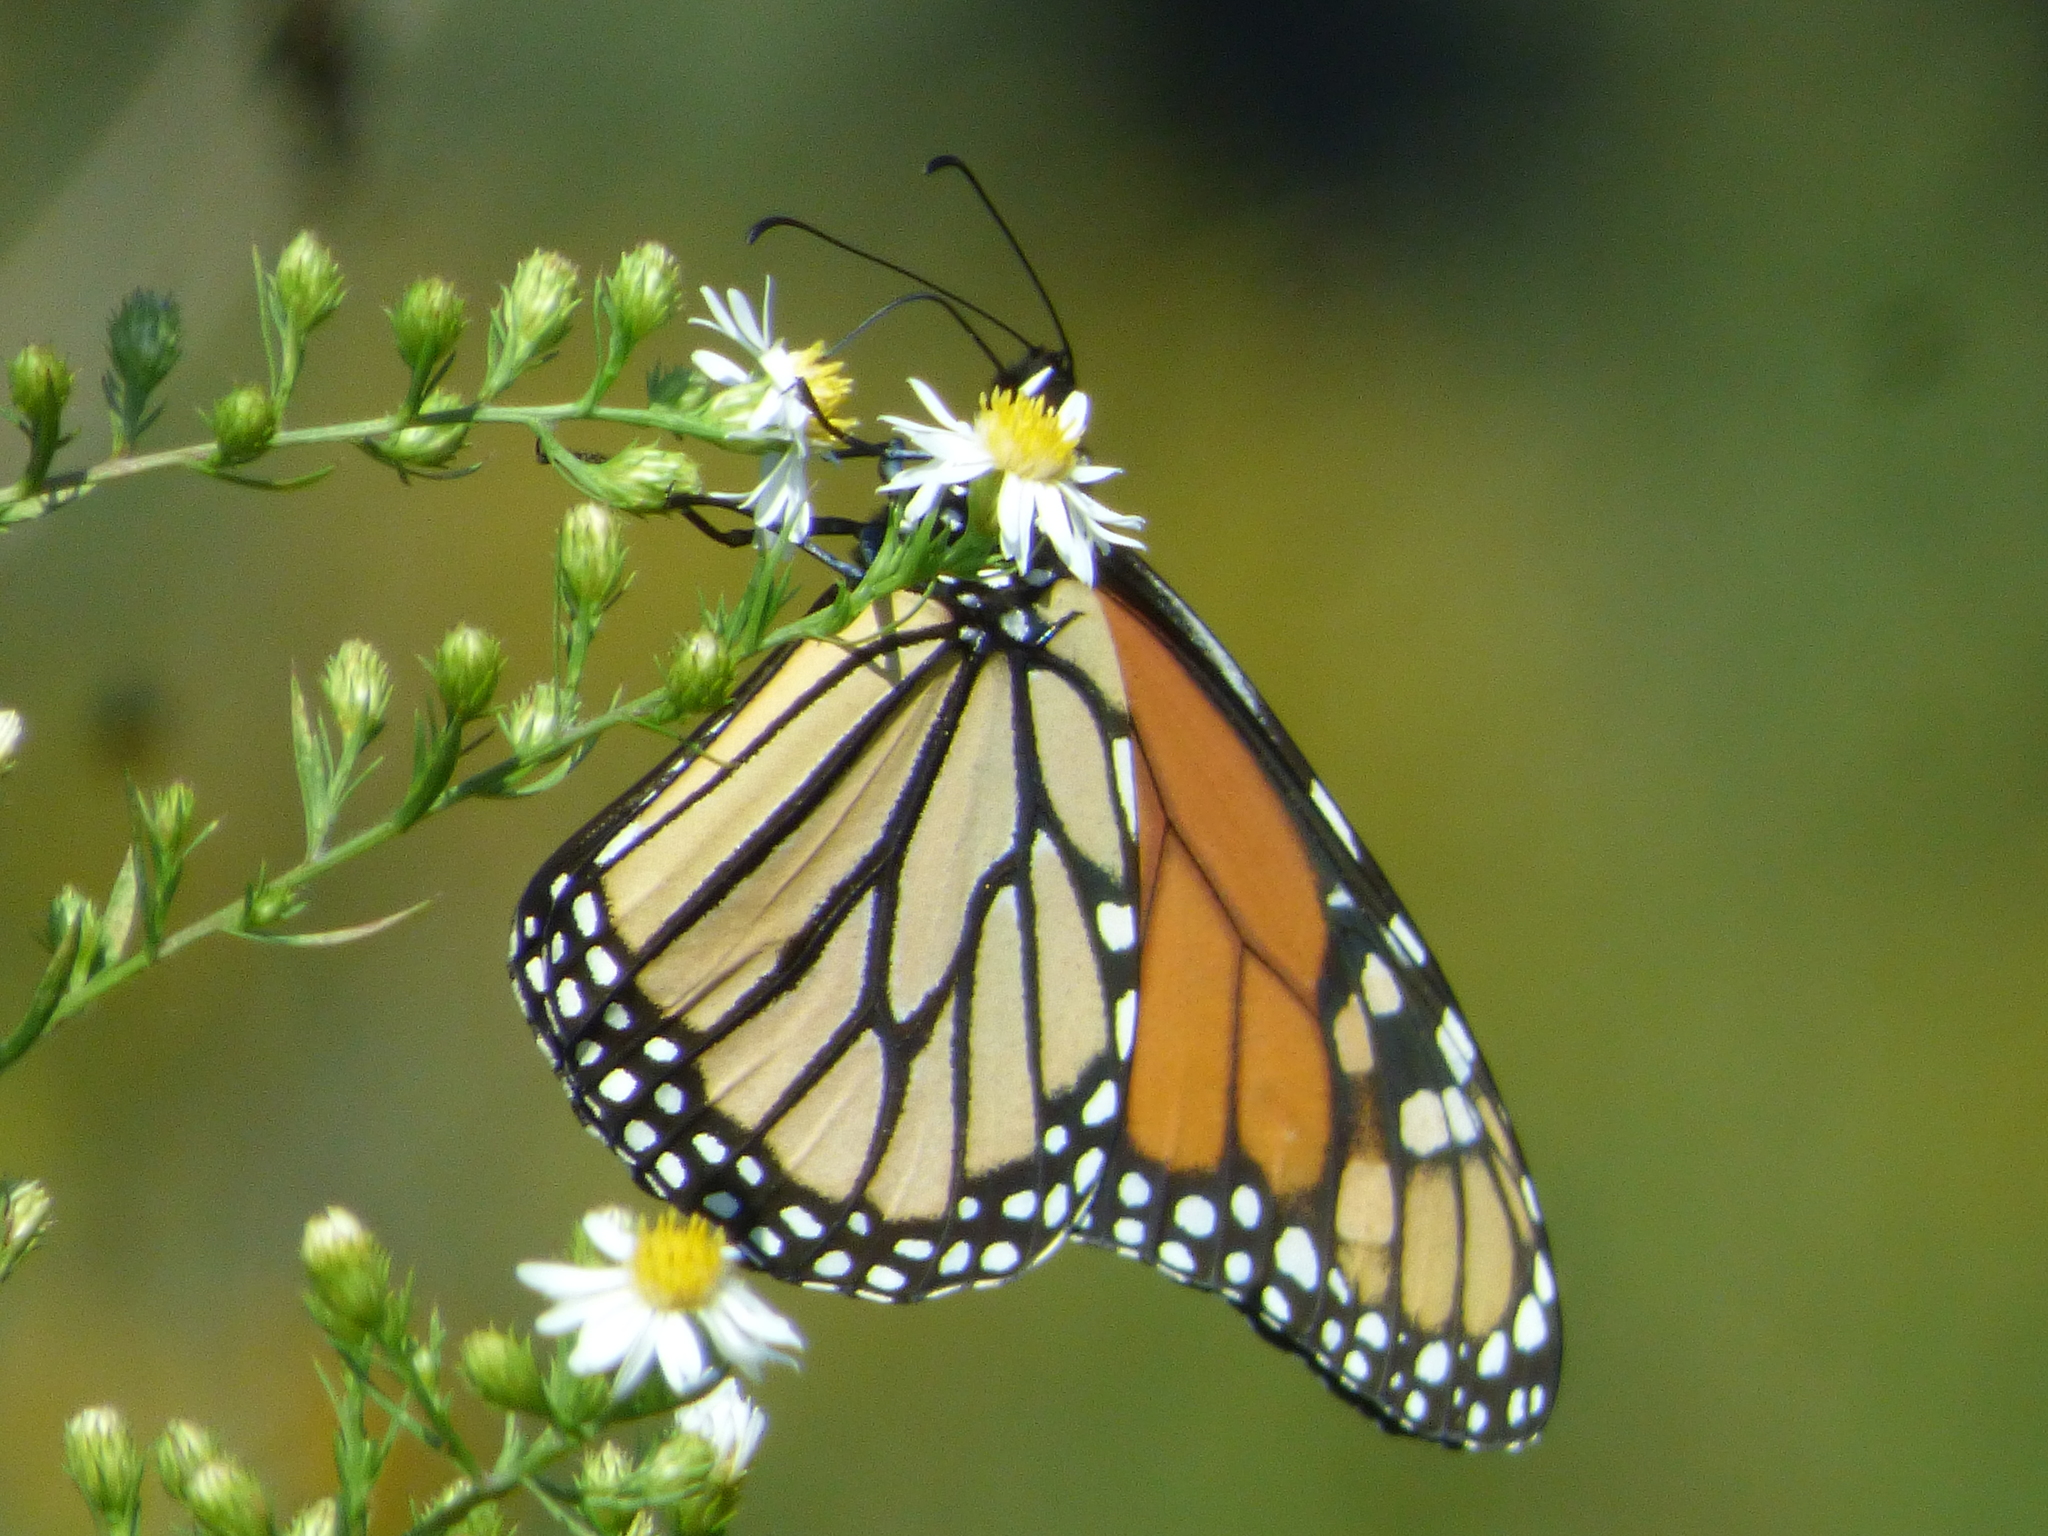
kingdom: Animalia
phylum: Arthropoda
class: Insecta
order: Lepidoptera
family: Nymphalidae
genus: Danaus
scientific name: Danaus plexippus
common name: Monarch
